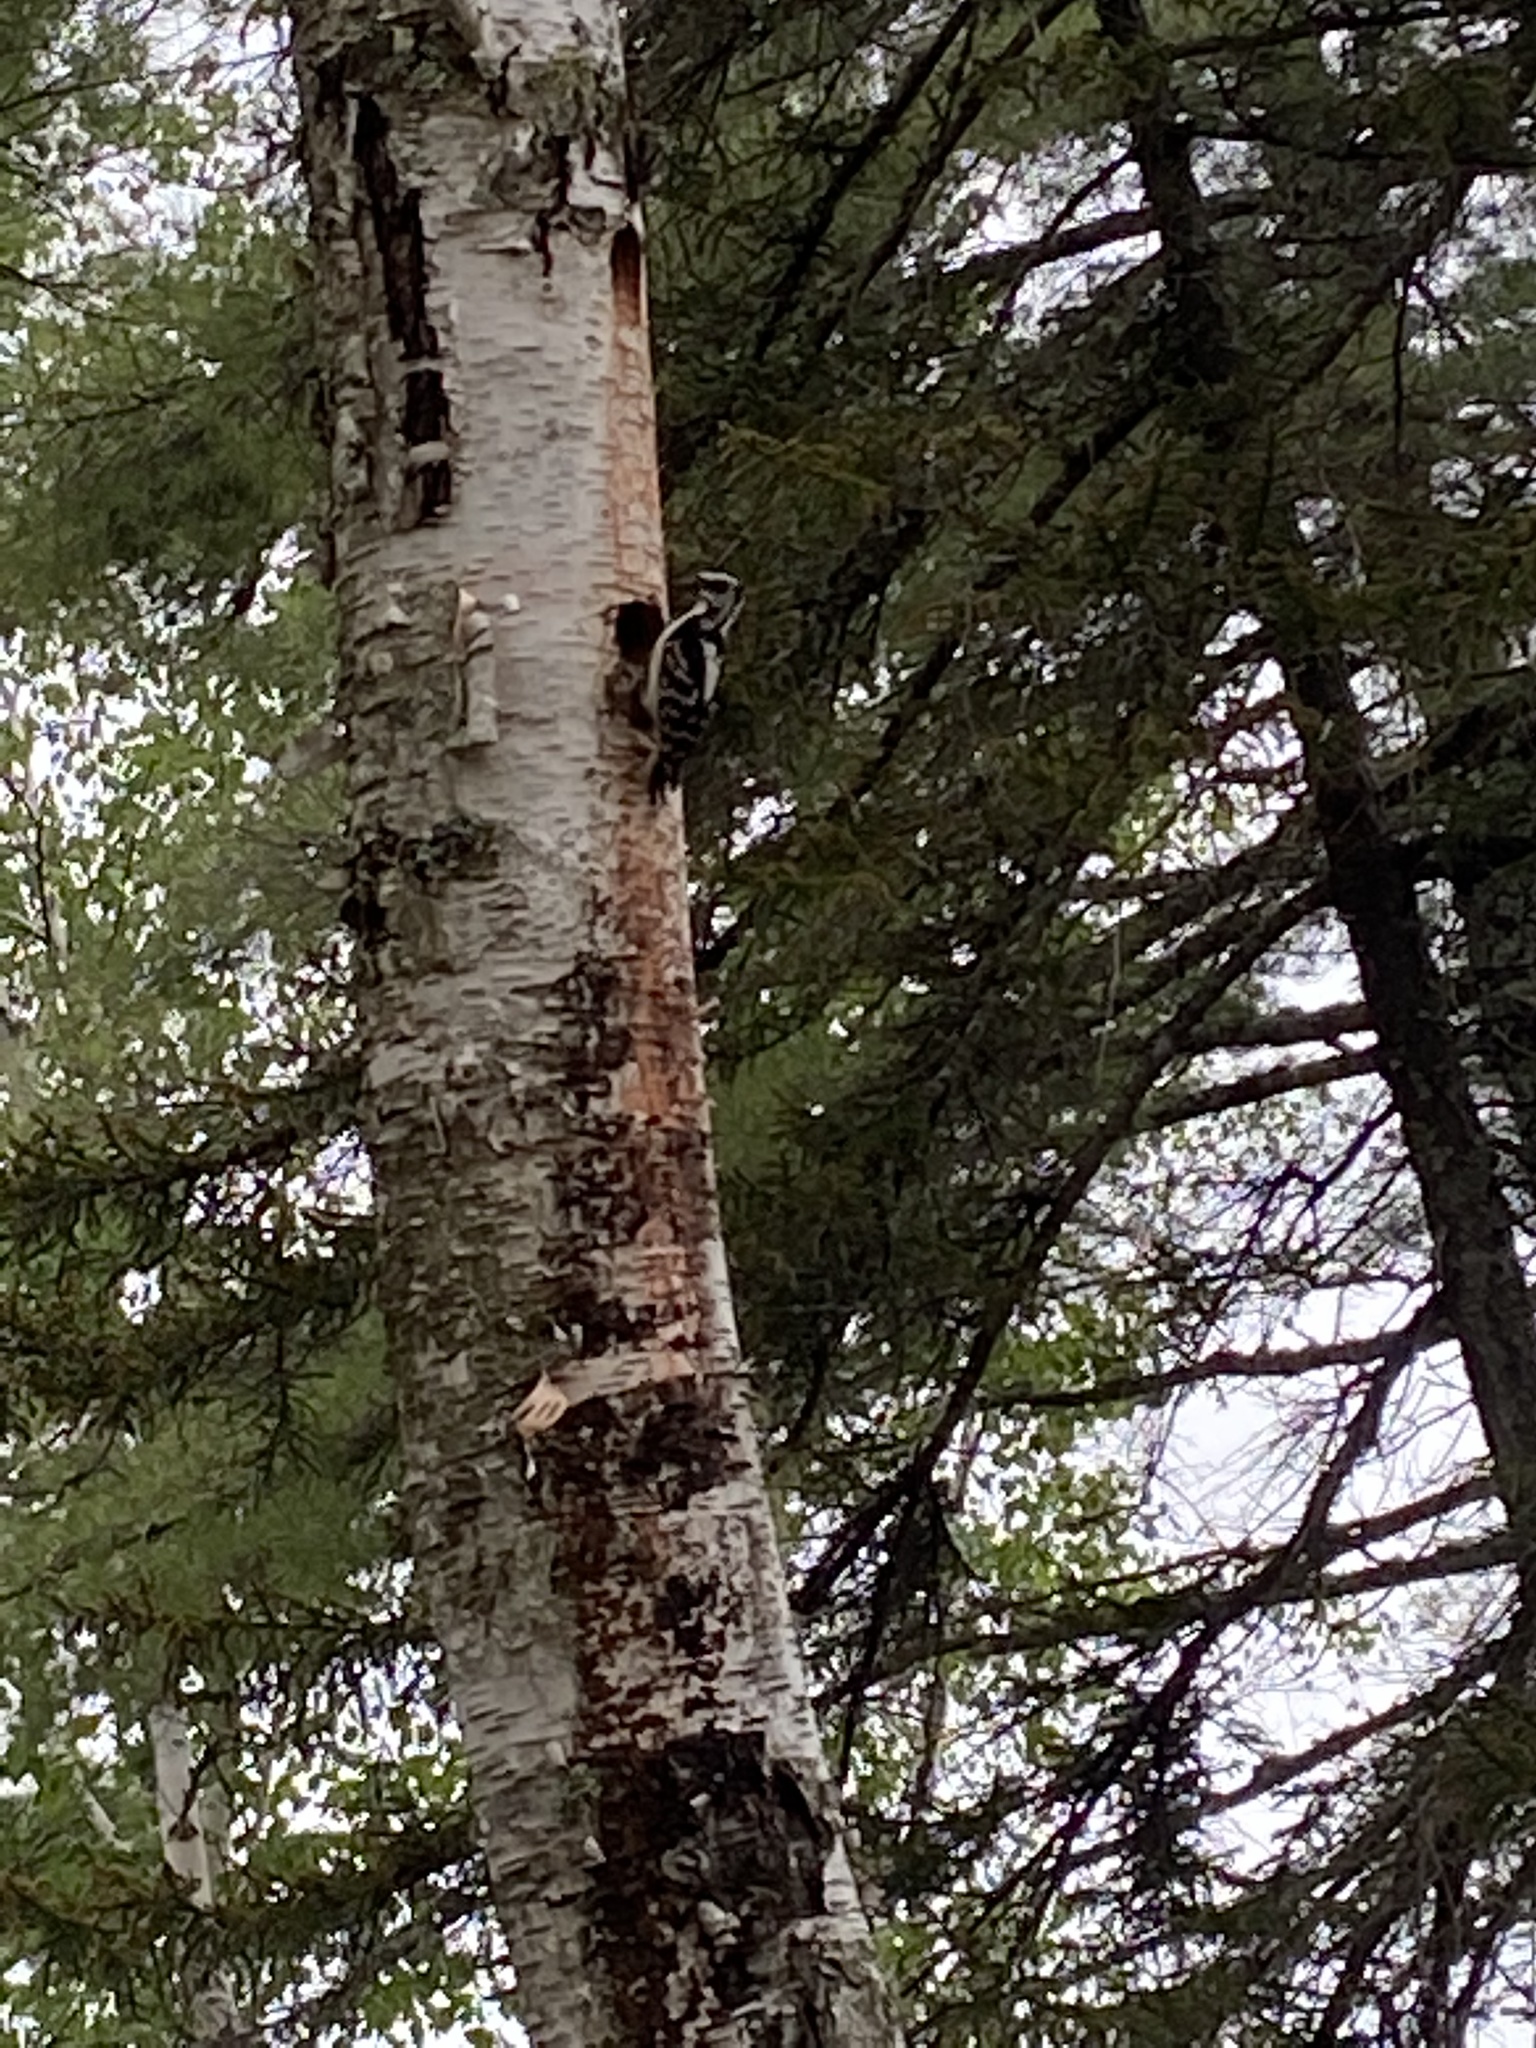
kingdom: Animalia
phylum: Chordata
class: Aves
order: Piciformes
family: Picidae
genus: Leuconotopicus
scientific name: Leuconotopicus villosus
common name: Hairy woodpecker
